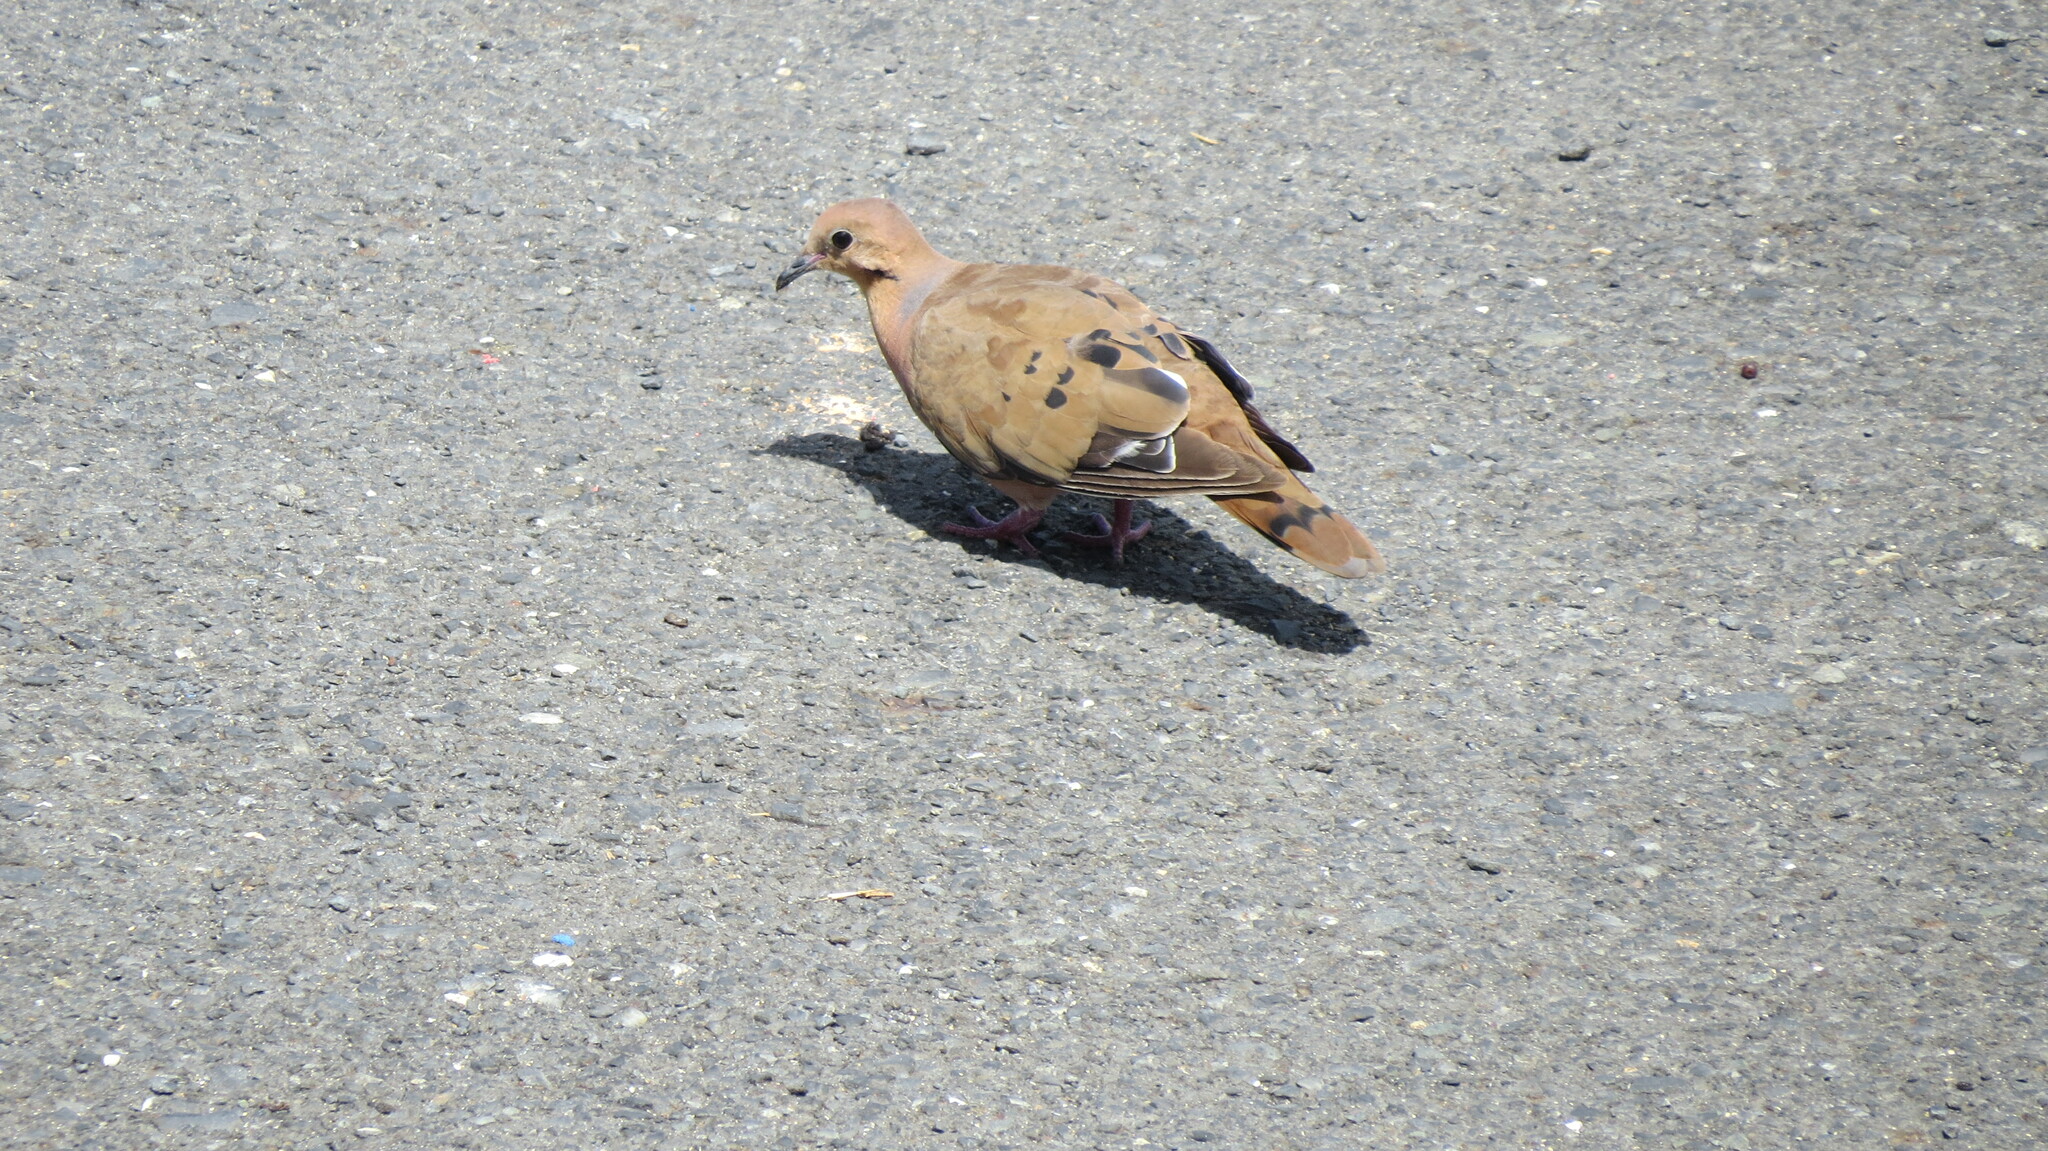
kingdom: Animalia
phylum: Chordata
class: Aves
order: Columbiformes
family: Columbidae
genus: Zenaida
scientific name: Zenaida aurita
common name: Zenaida dove
